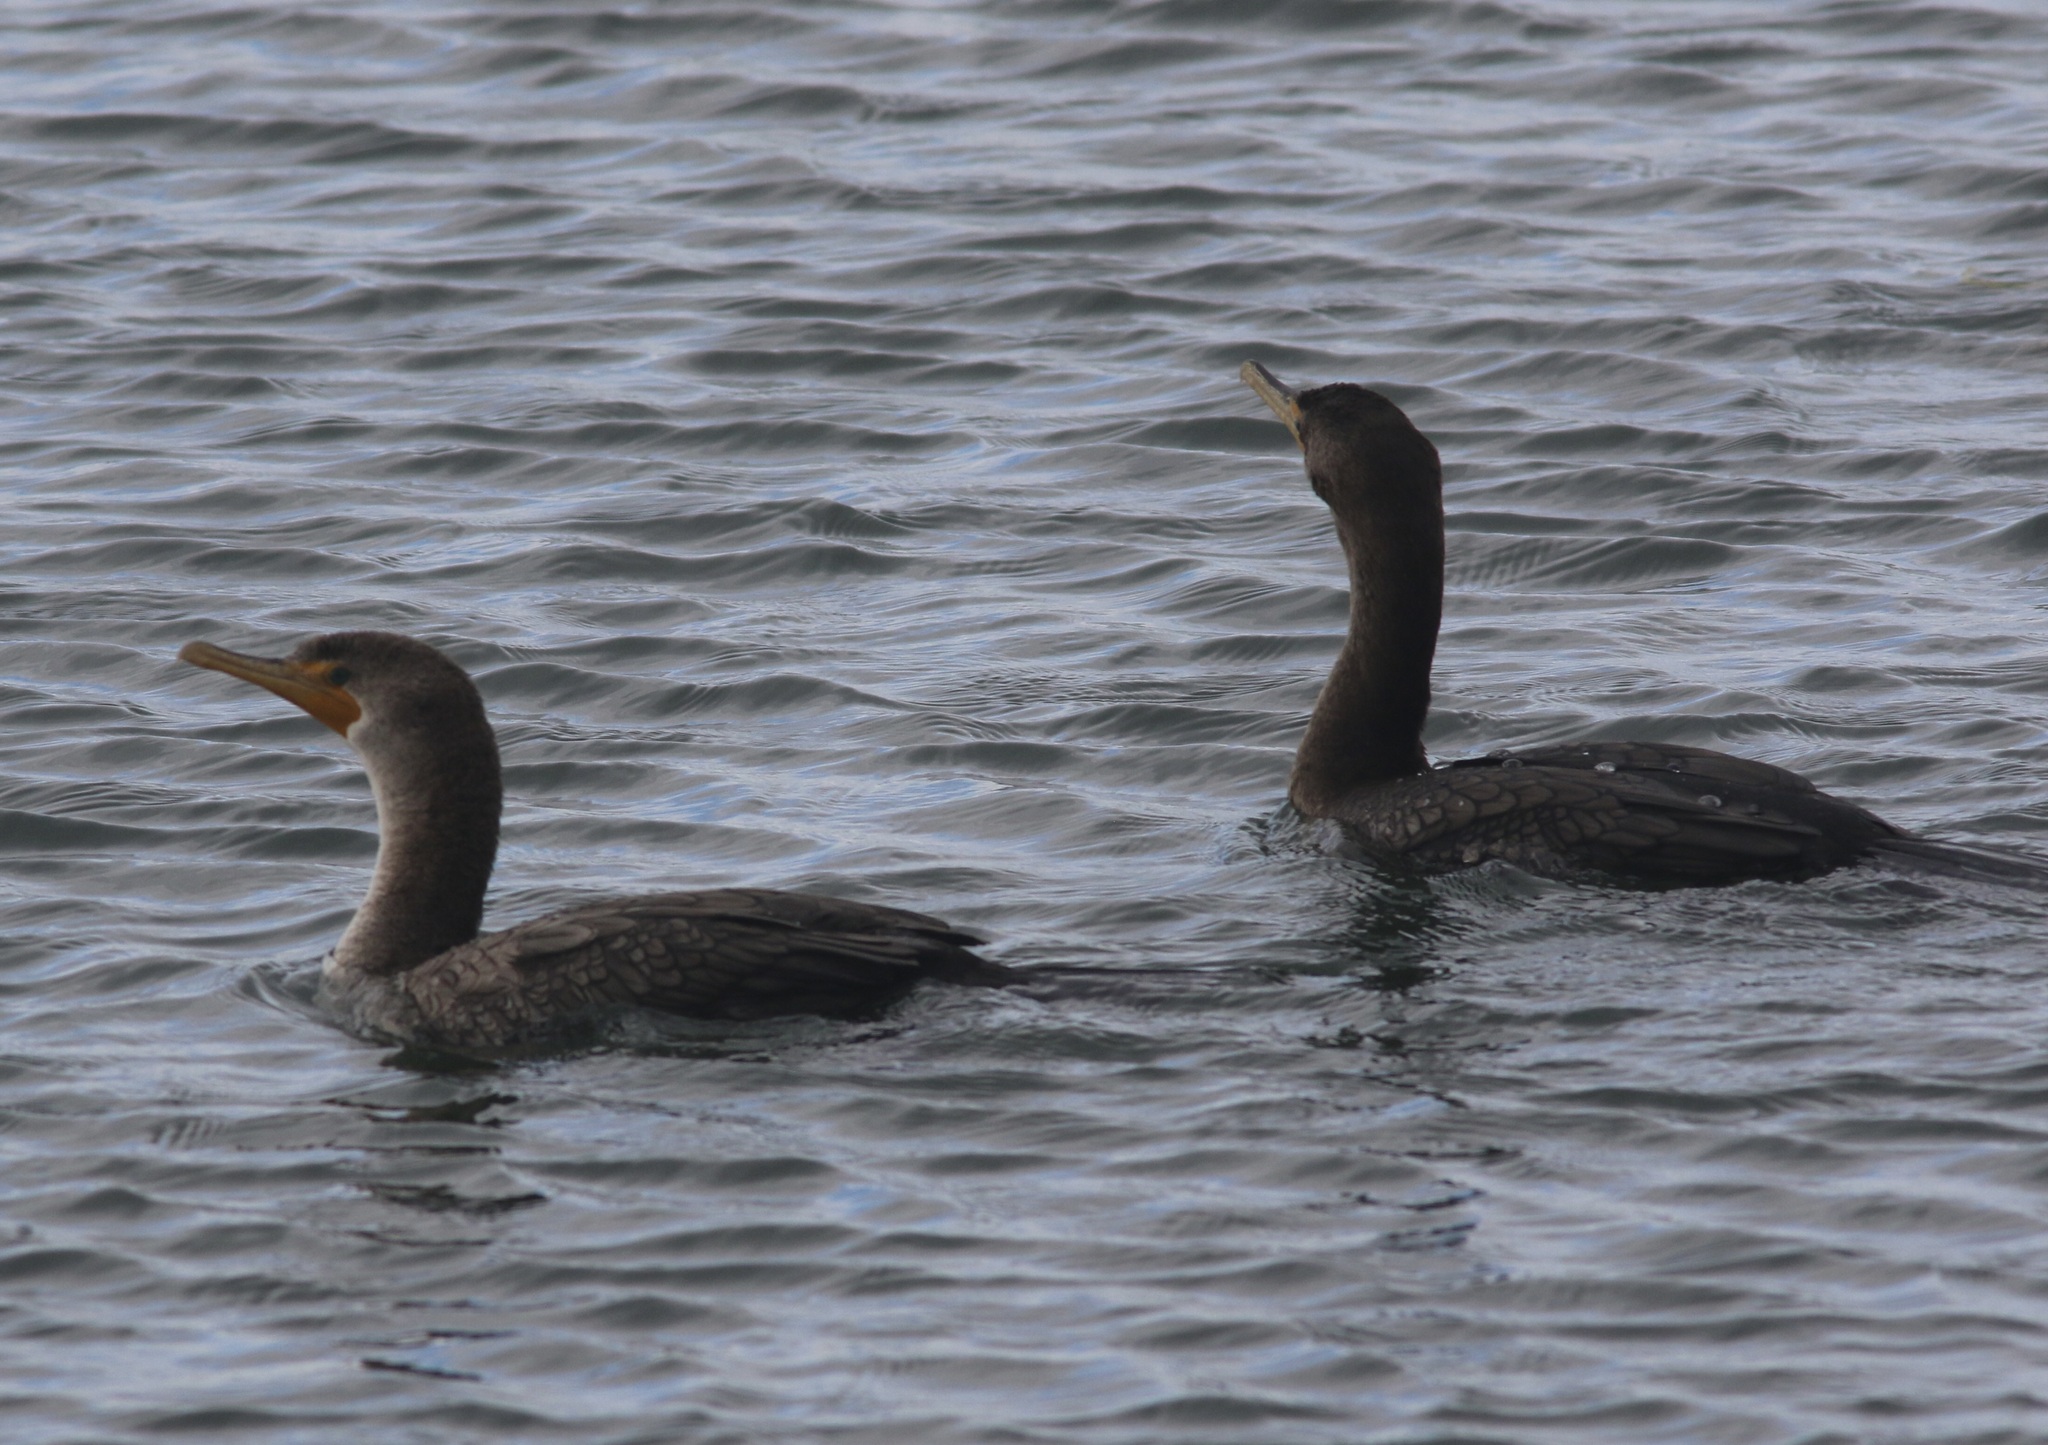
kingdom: Animalia
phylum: Chordata
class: Aves
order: Suliformes
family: Phalacrocoracidae
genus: Phalacrocorax
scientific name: Phalacrocorax auritus
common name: Double-crested cormorant
